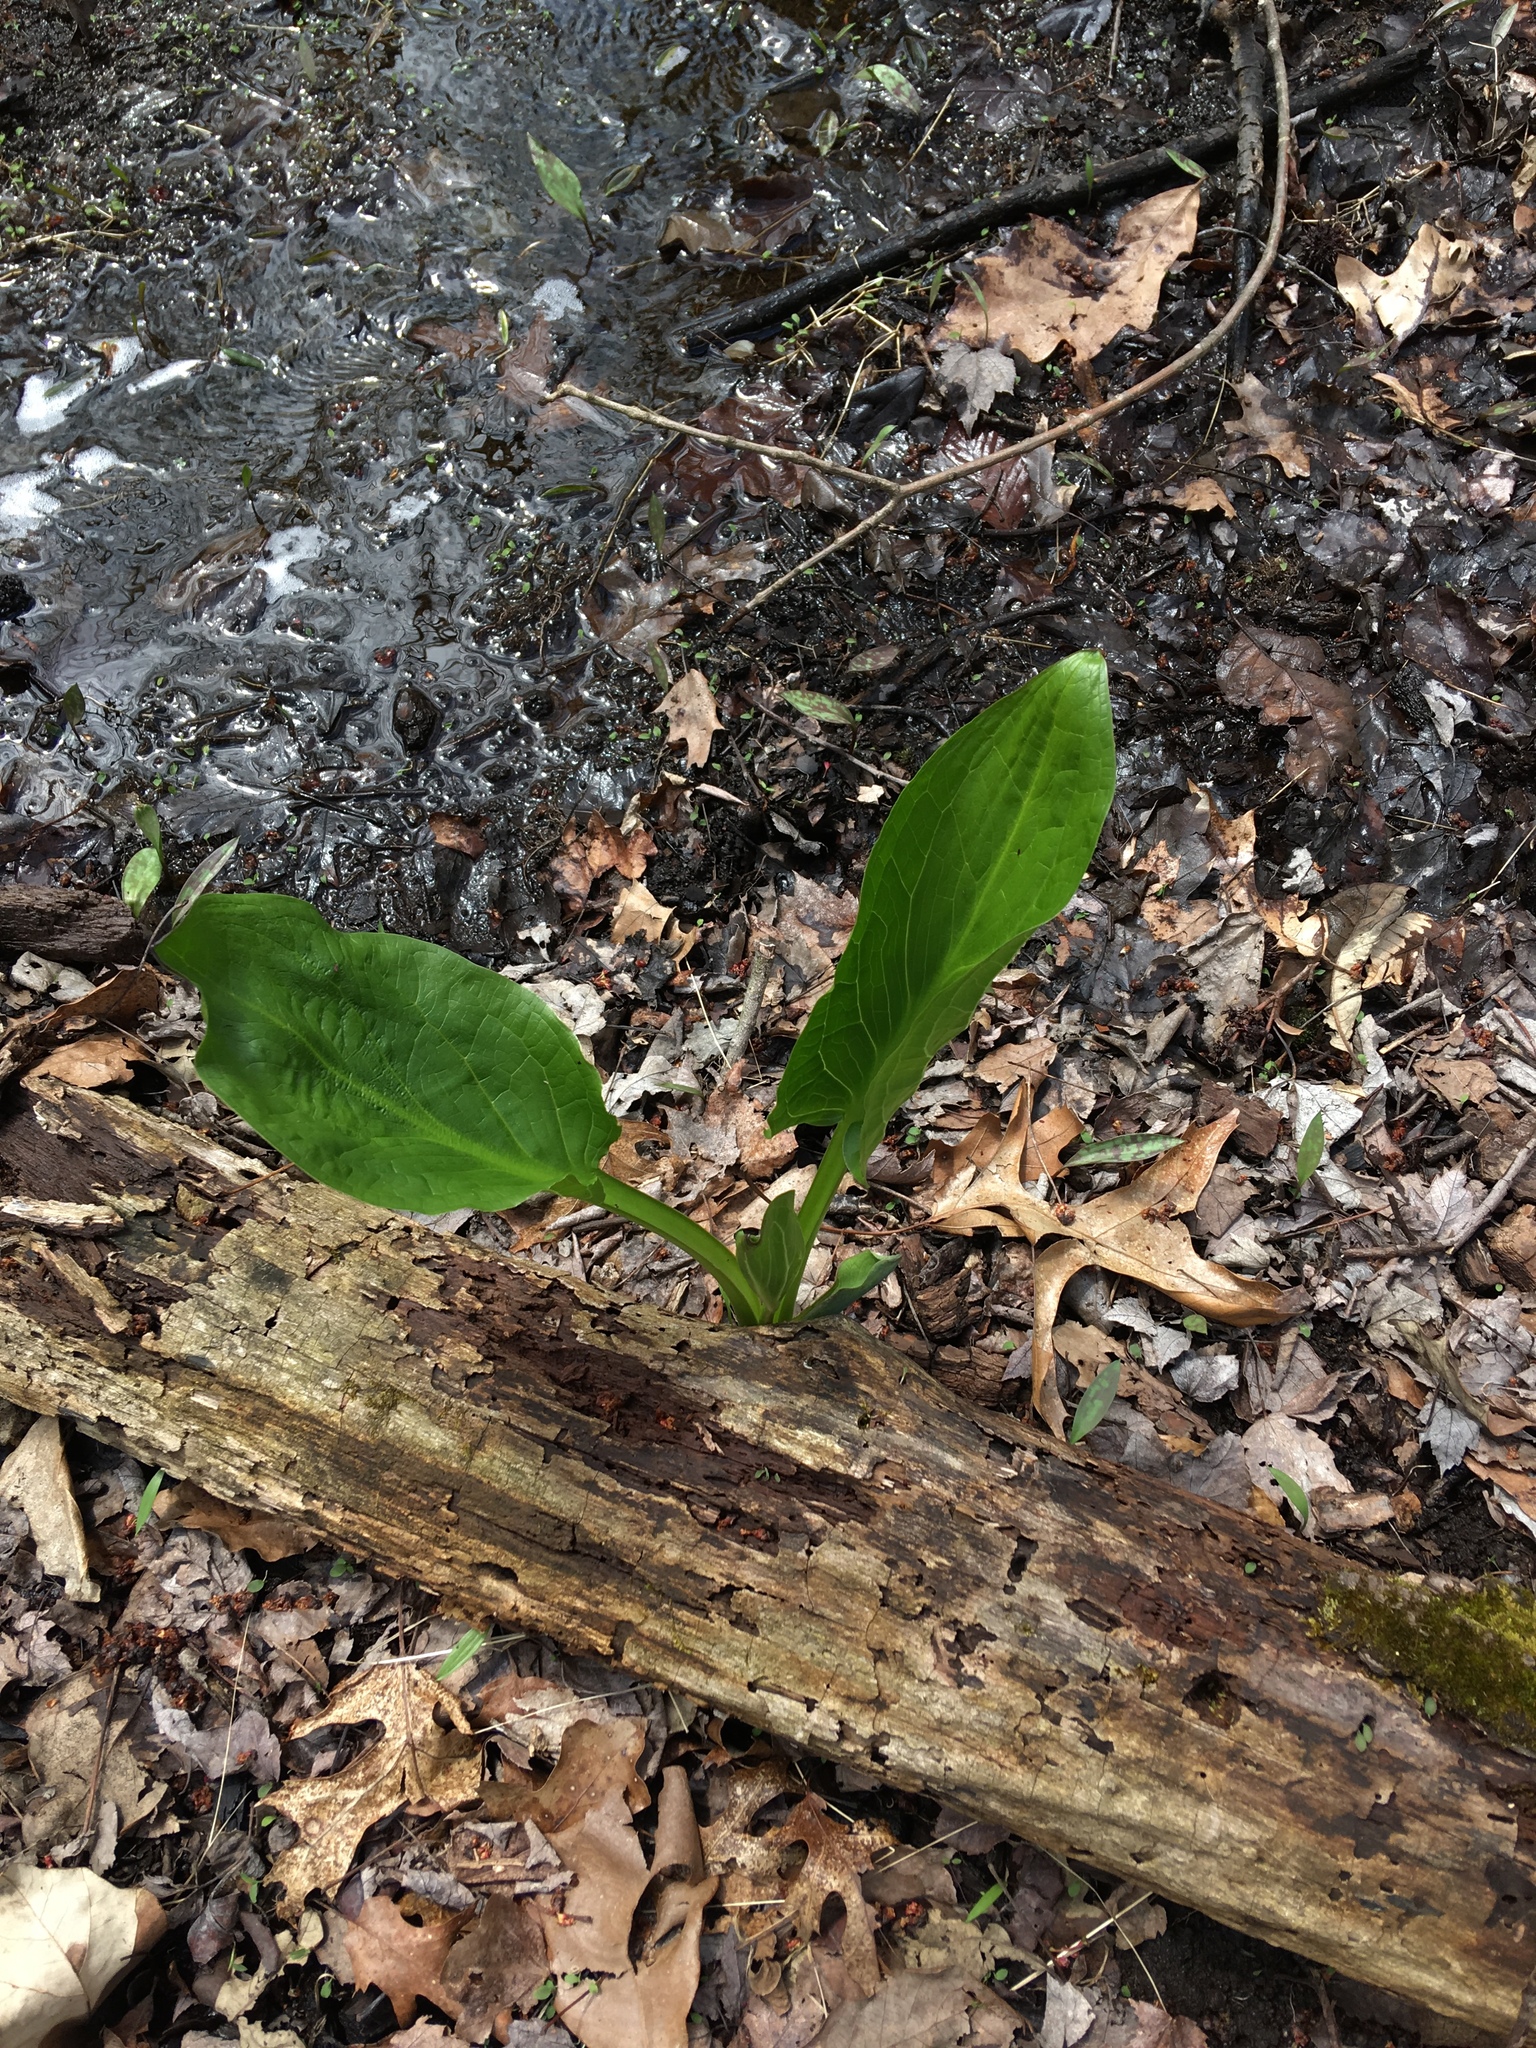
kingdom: Plantae
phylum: Tracheophyta
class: Liliopsida
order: Alismatales
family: Araceae
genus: Symplocarpus
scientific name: Symplocarpus foetidus
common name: Eastern skunk cabbage
